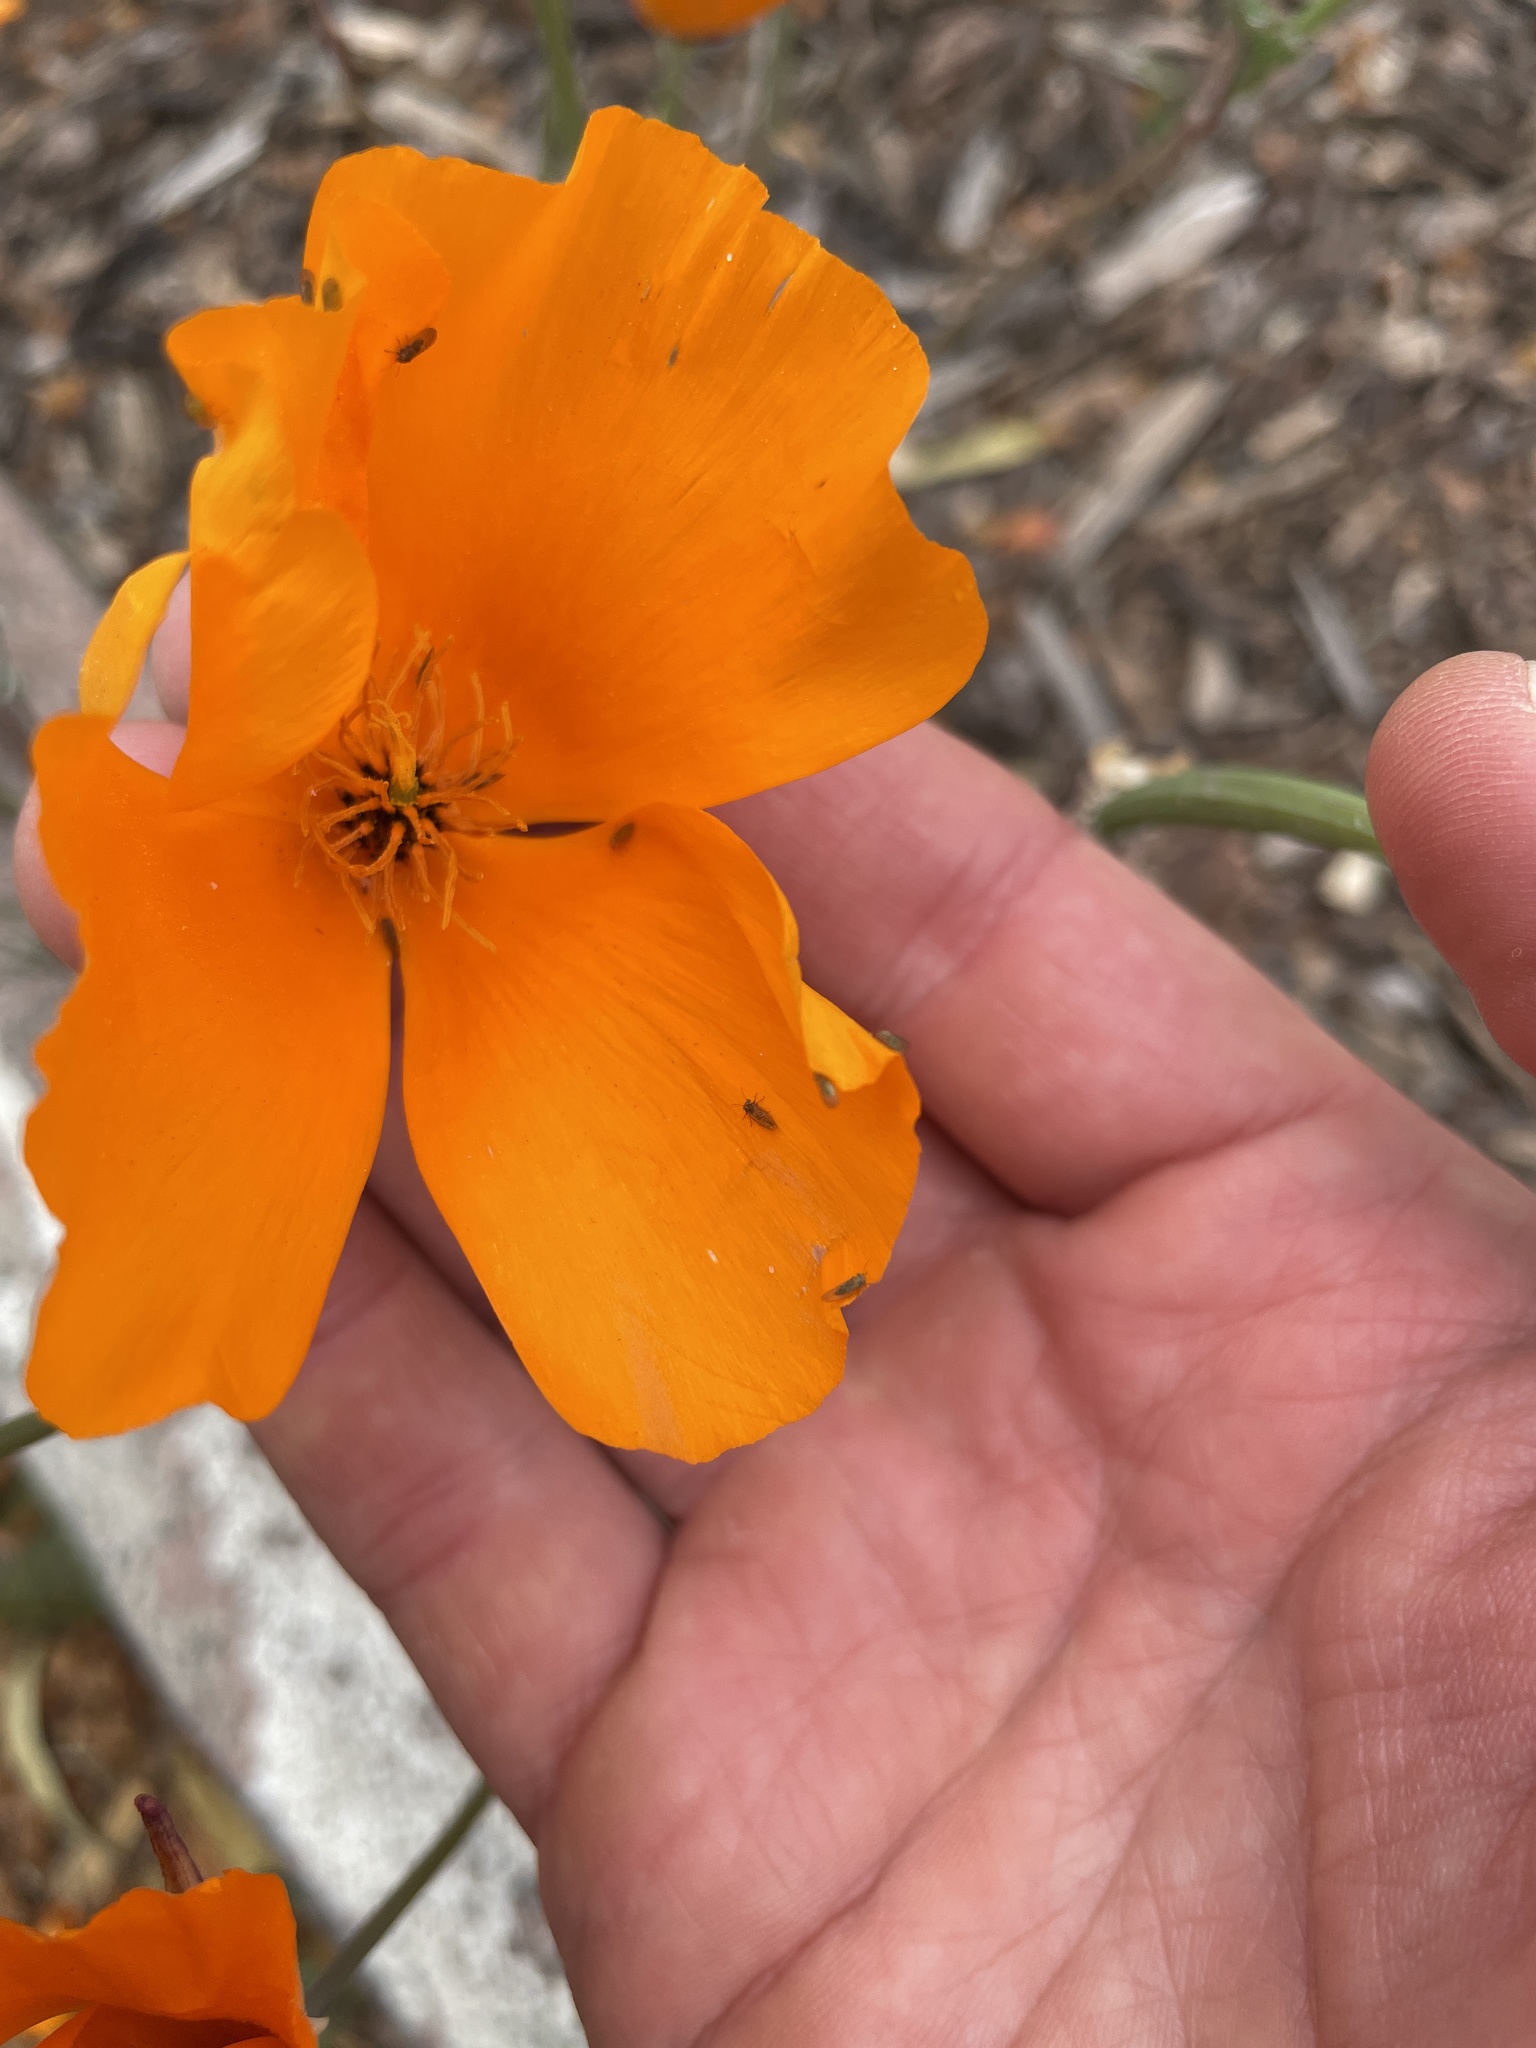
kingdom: Animalia
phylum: Arthropoda
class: Insecta
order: Hemiptera
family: Psyllidae
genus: Acizzia
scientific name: Acizzia uncatoides
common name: Psyllid
